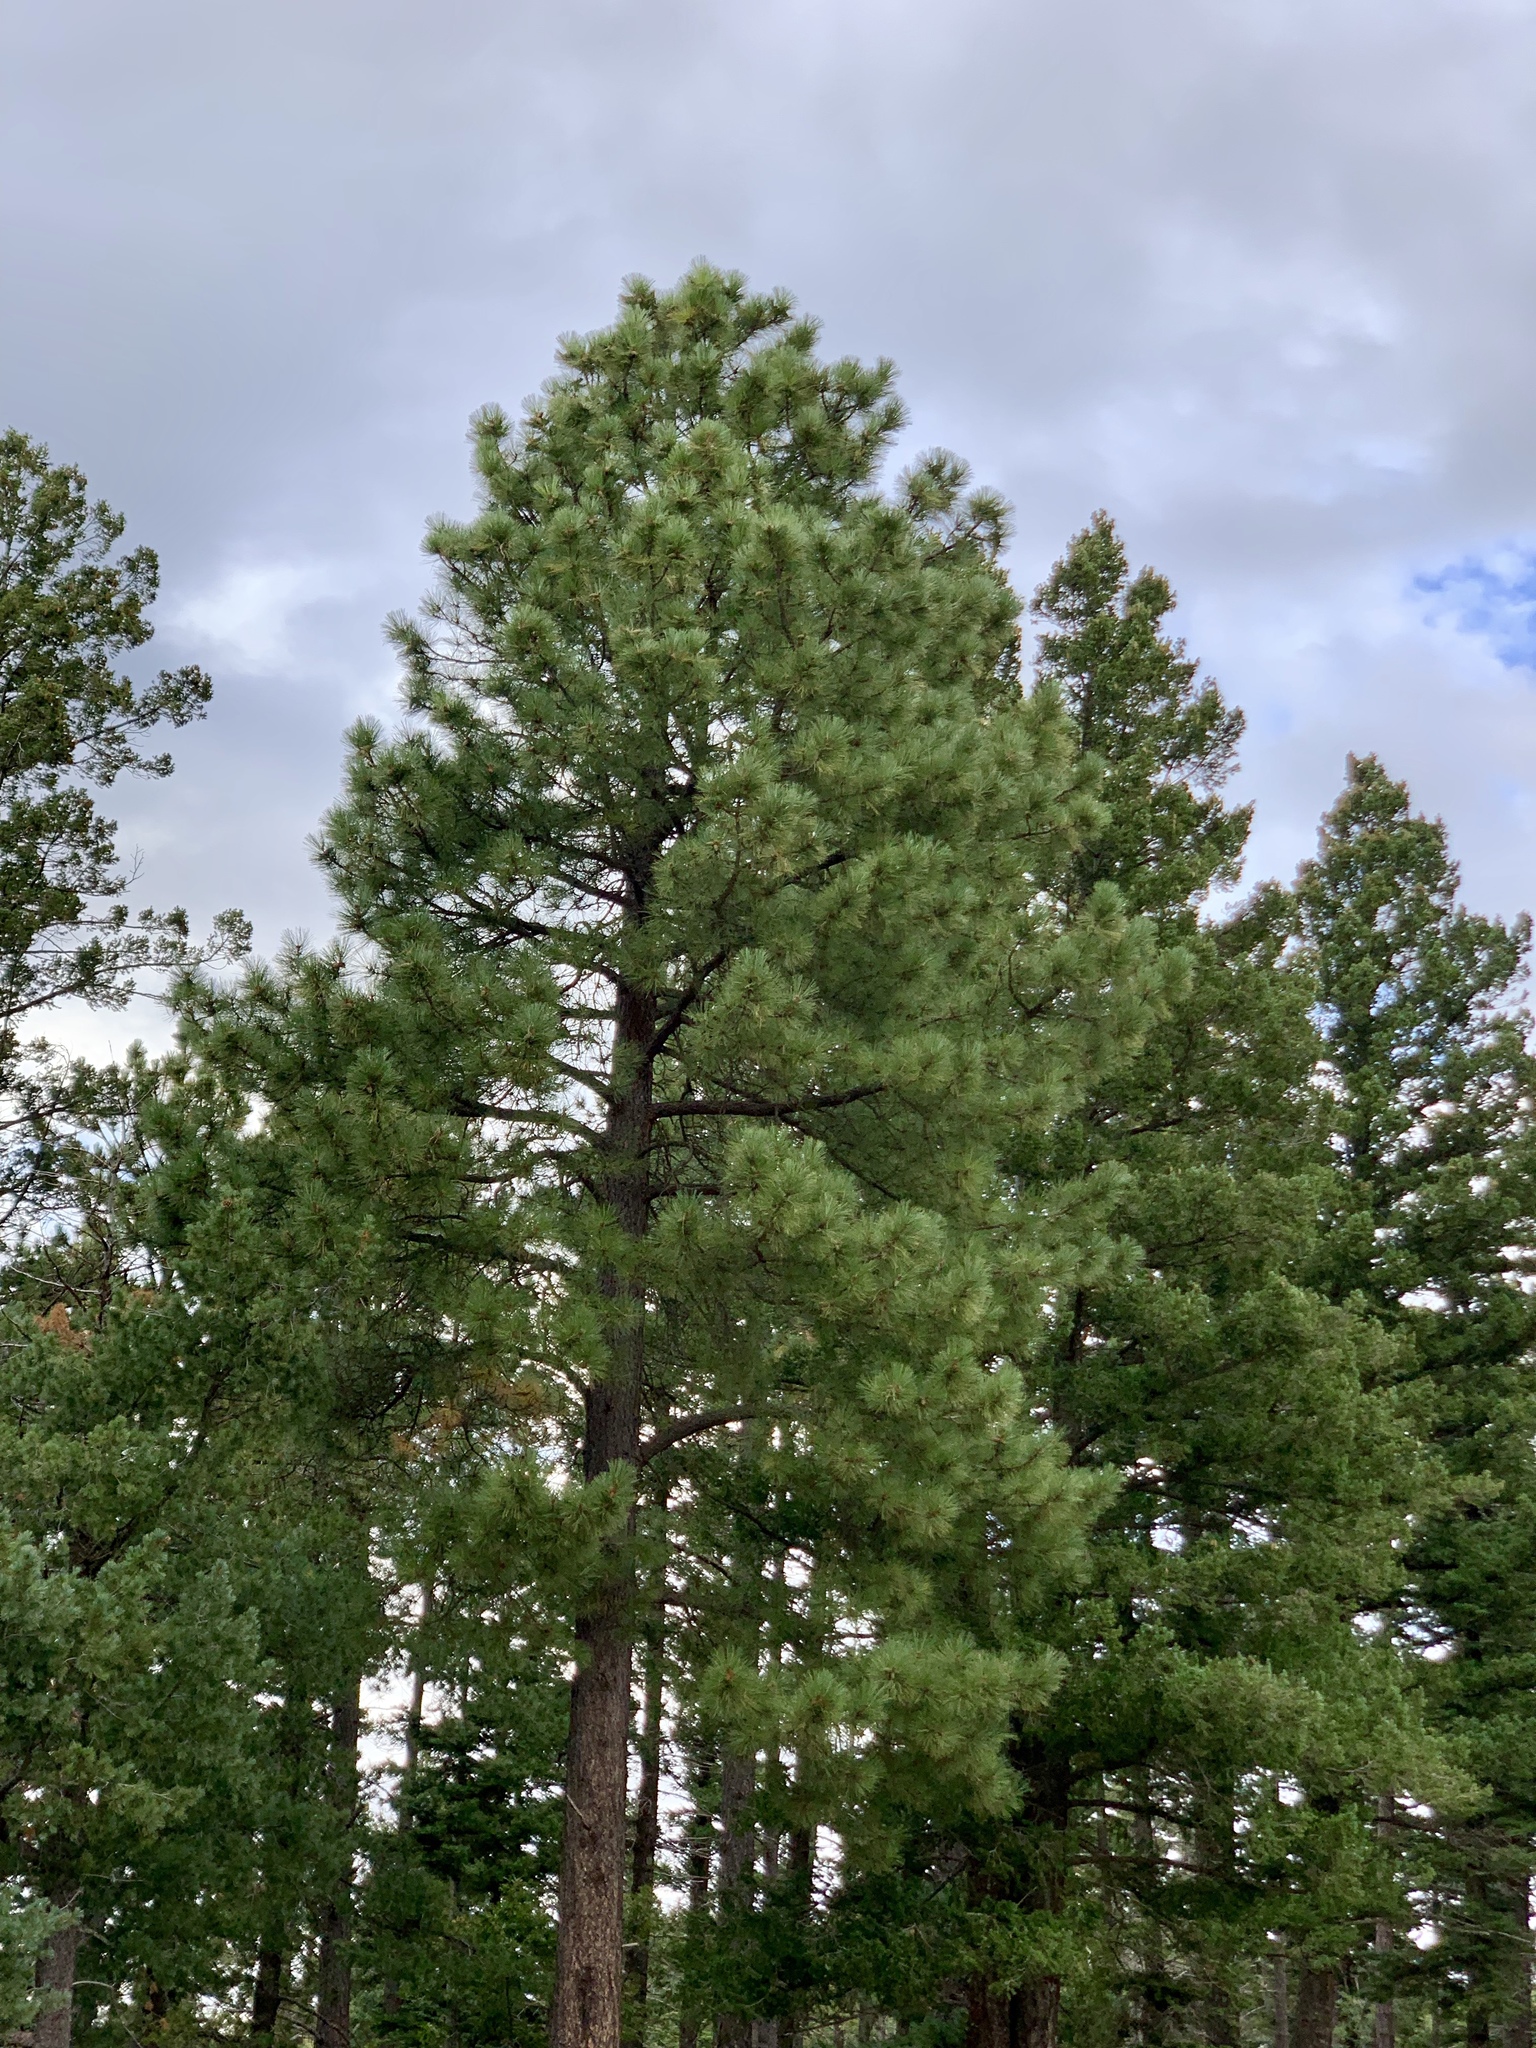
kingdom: Plantae
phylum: Tracheophyta
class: Pinopsida
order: Pinales
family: Pinaceae
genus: Pinus
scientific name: Pinus ponderosa
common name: Western yellow-pine
